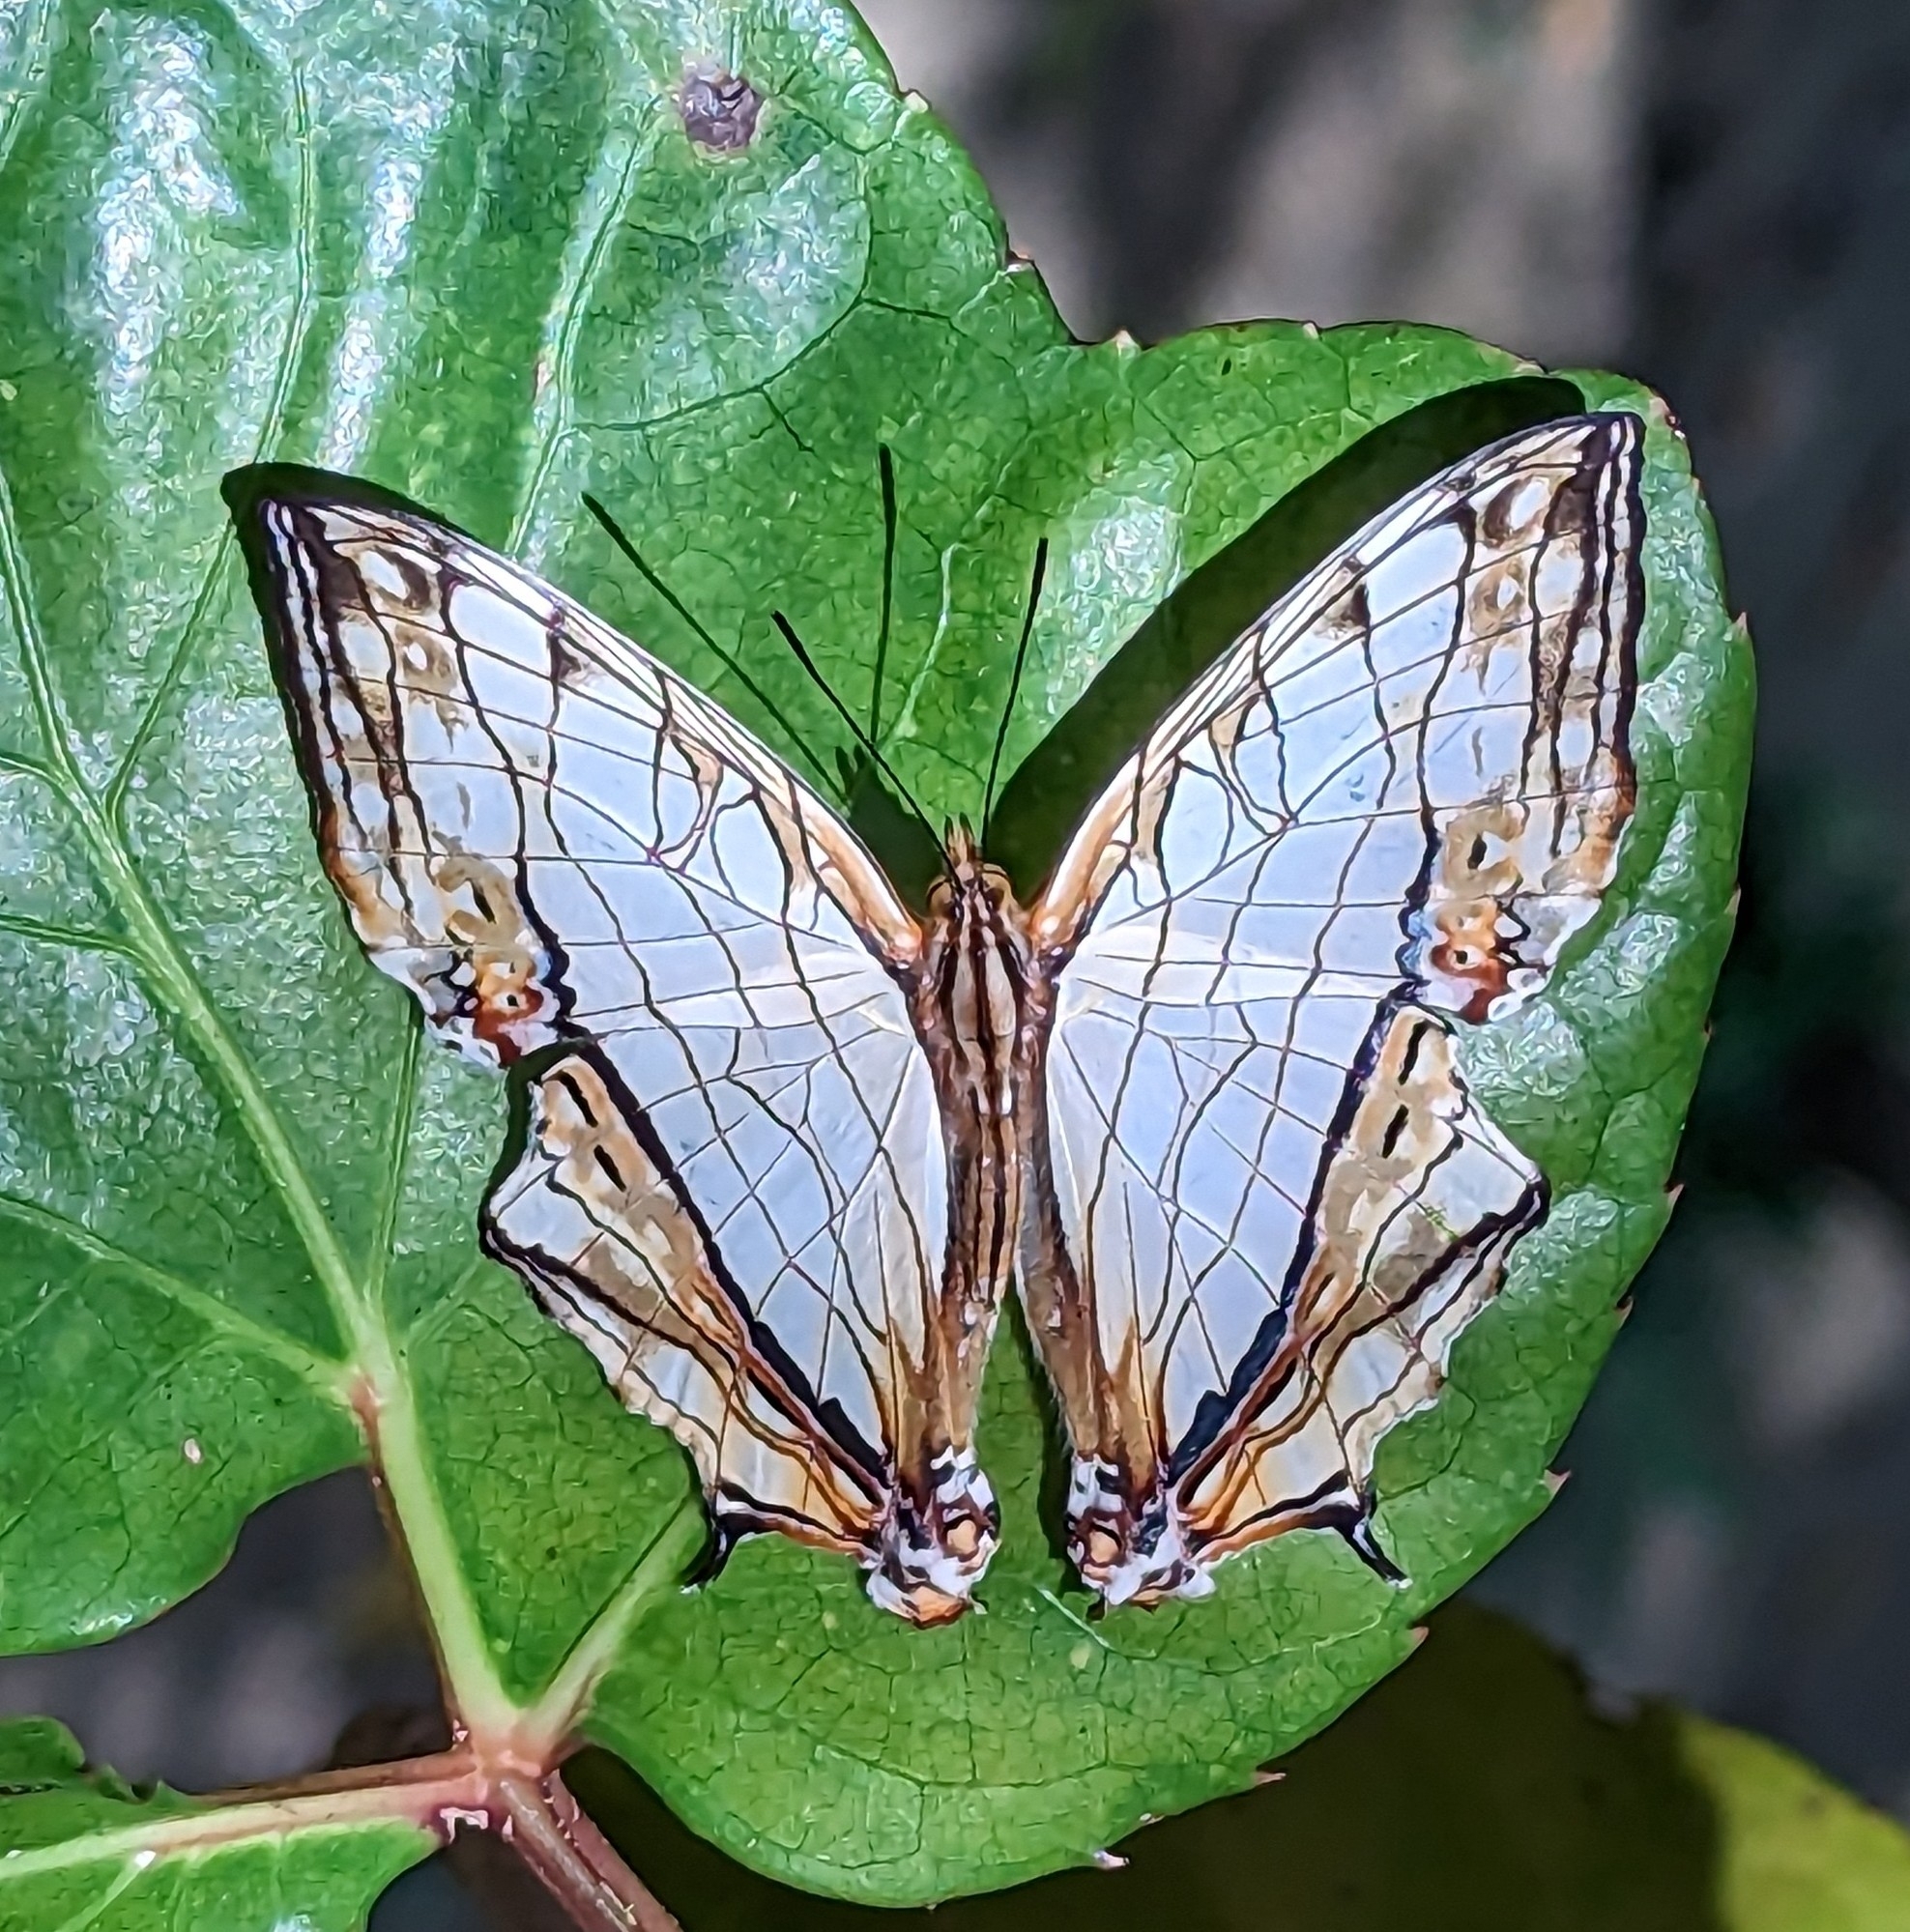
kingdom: Animalia
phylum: Arthropoda
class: Insecta
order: Lepidoptera
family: Nymphalidae
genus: Cyrestis
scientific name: Cyrestis thyodamas
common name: Common mapwing
